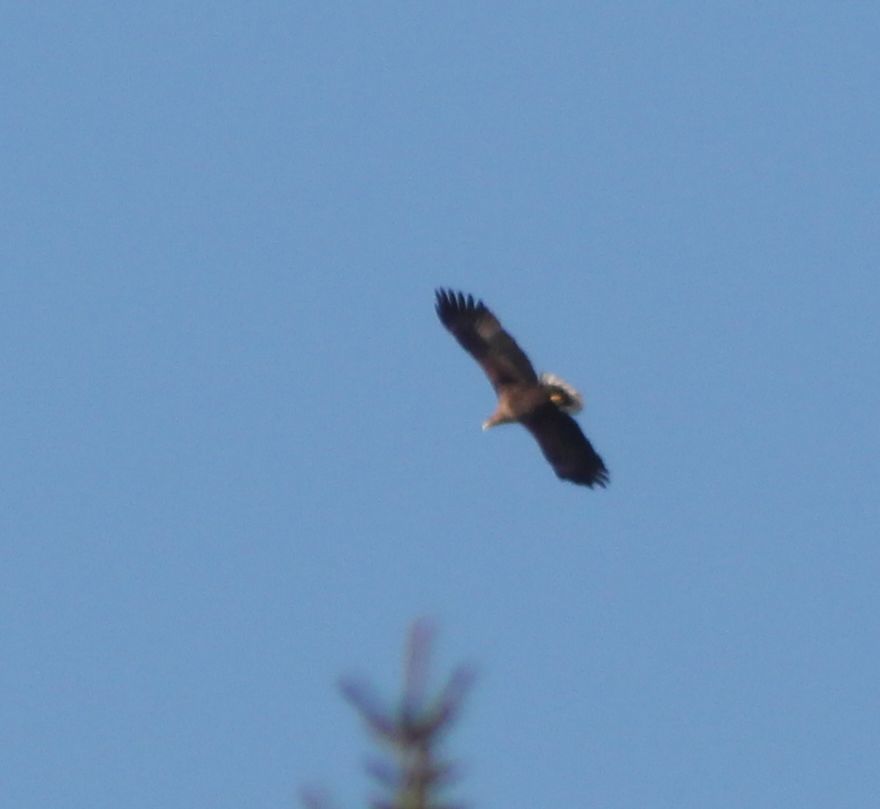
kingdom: Animalia
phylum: Chordata
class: Aves
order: Accipitriformes
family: Accipitridae
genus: Haliaeetus
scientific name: Haliaeetus albicilla
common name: White-tailed eagle
